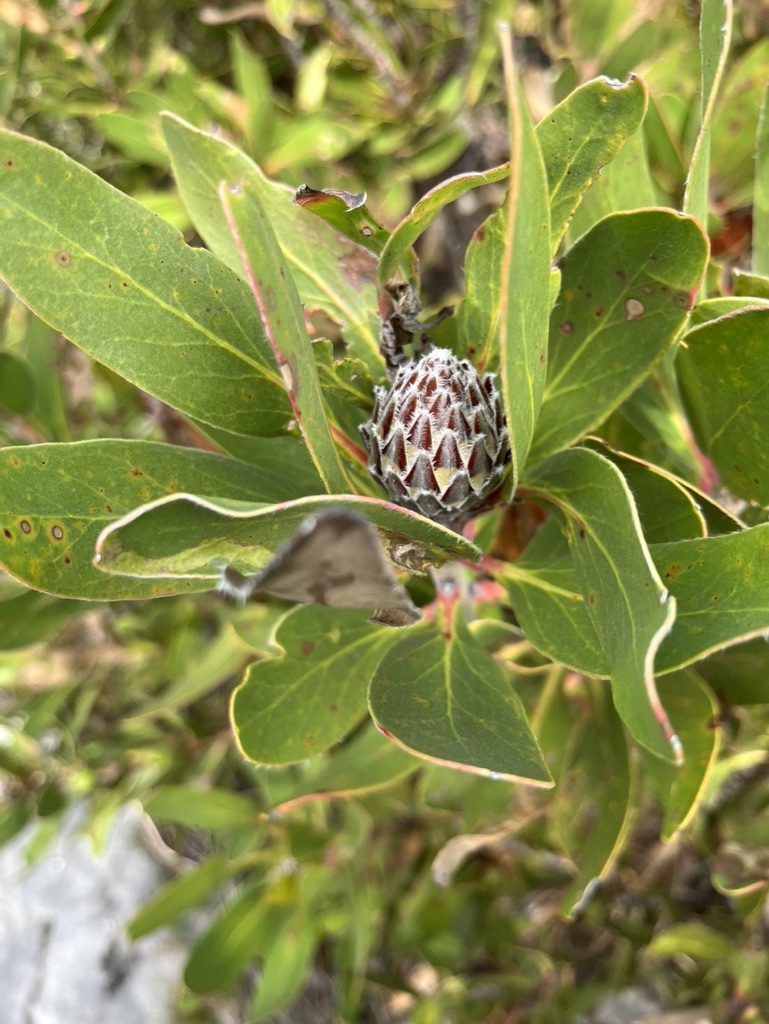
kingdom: Plantae
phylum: Tracheophyta
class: Magnoliopsida
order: Proteales
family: Proteaceae
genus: Protea
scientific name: Protea obtusifolia
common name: Bredasdorp sugarbush
